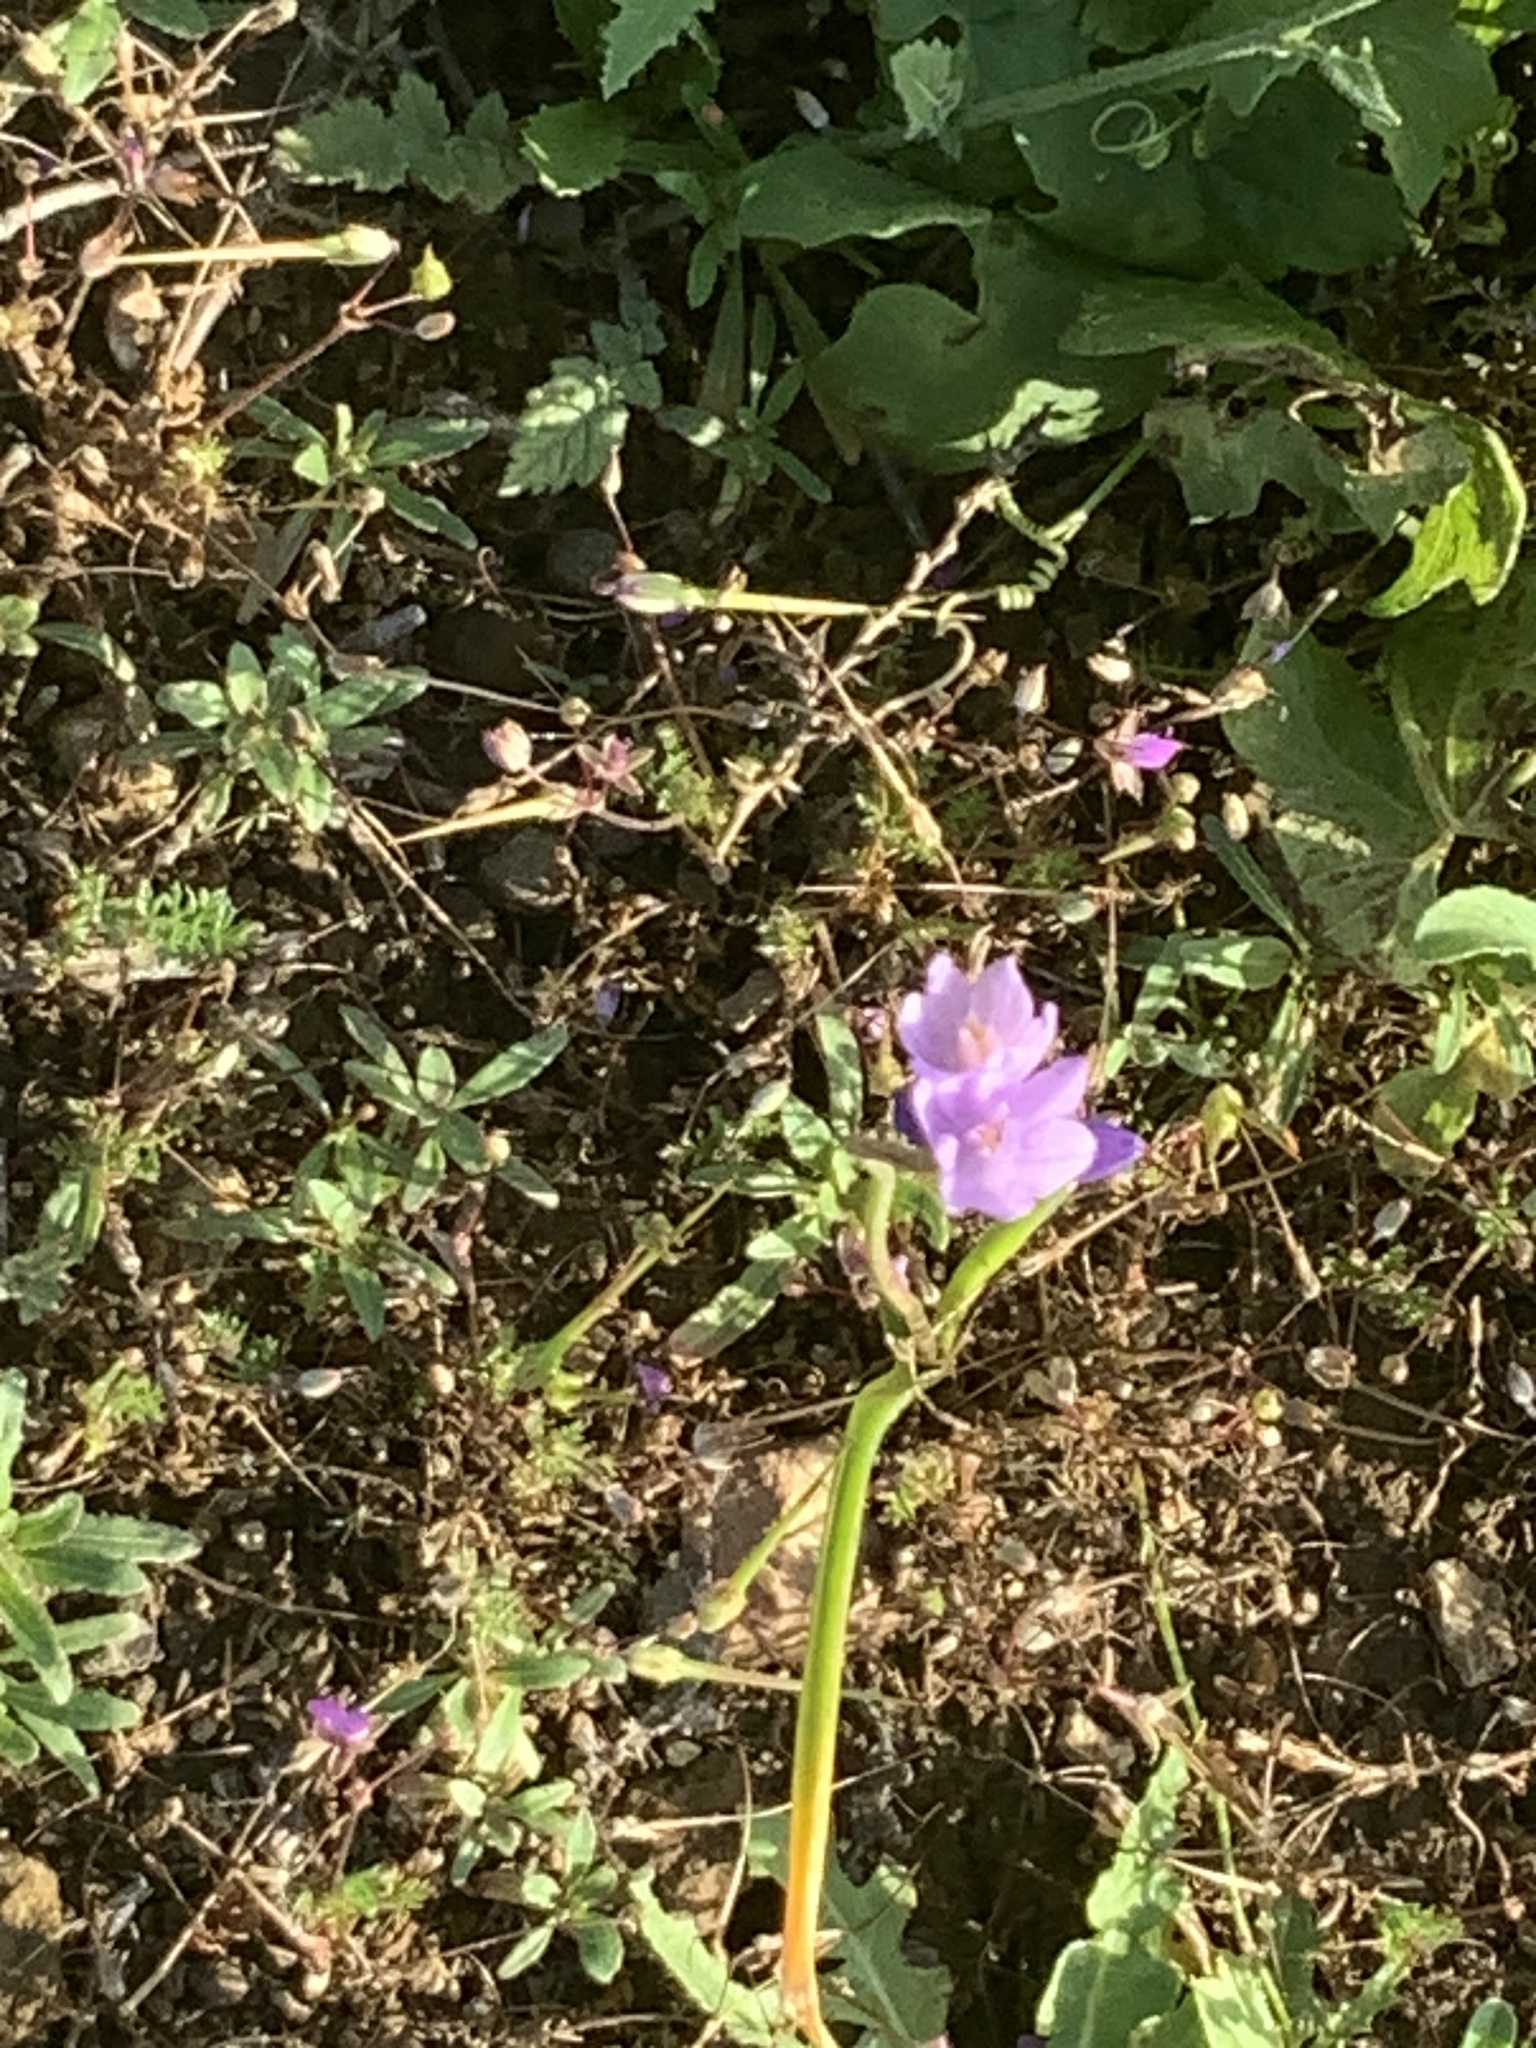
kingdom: Plantae
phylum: Tracheophyta
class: Liliopsida
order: Asparagales
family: Asparagaceae
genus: Dipterostemon
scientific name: Dipterostemon capitatus
